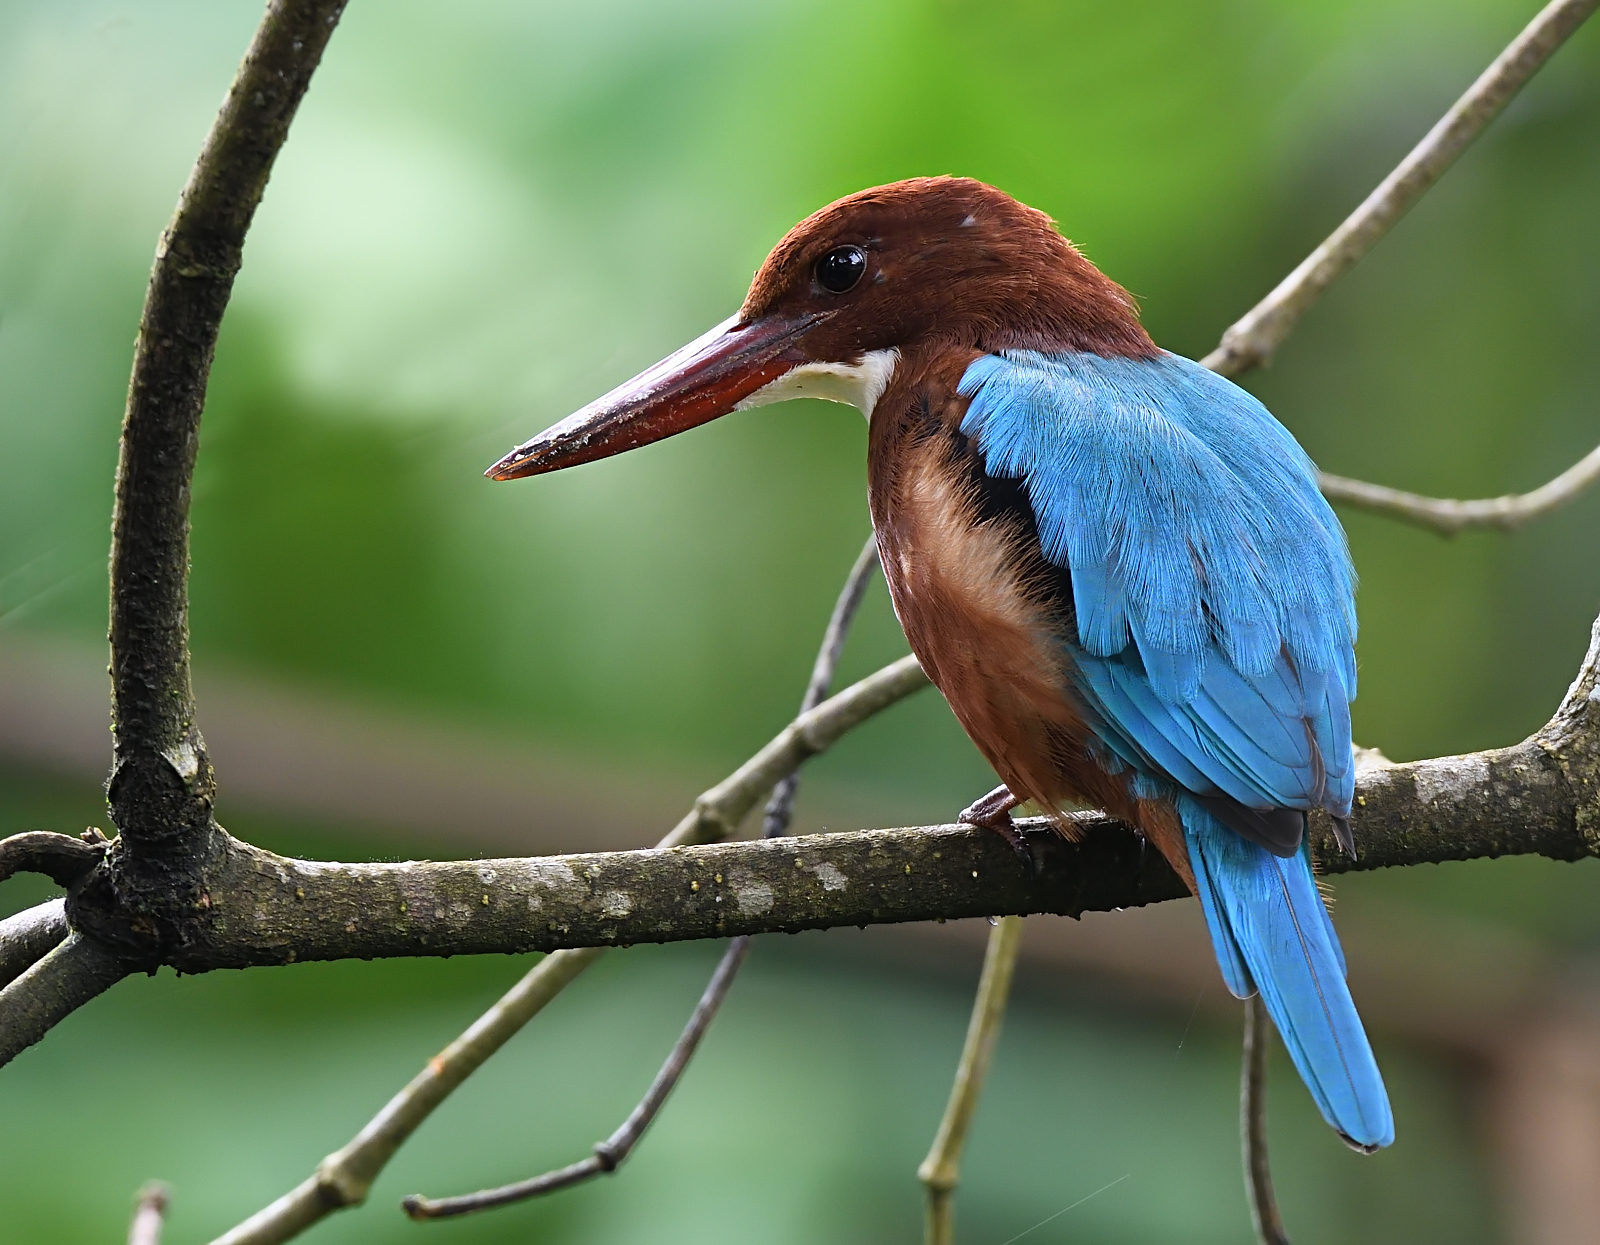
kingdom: Animalia
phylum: Chordata
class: Aves
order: Coraciiformes
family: Alcedinidae
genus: Halcyon
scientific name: Halcyon smyrnensis
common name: White-throated kingfisher
